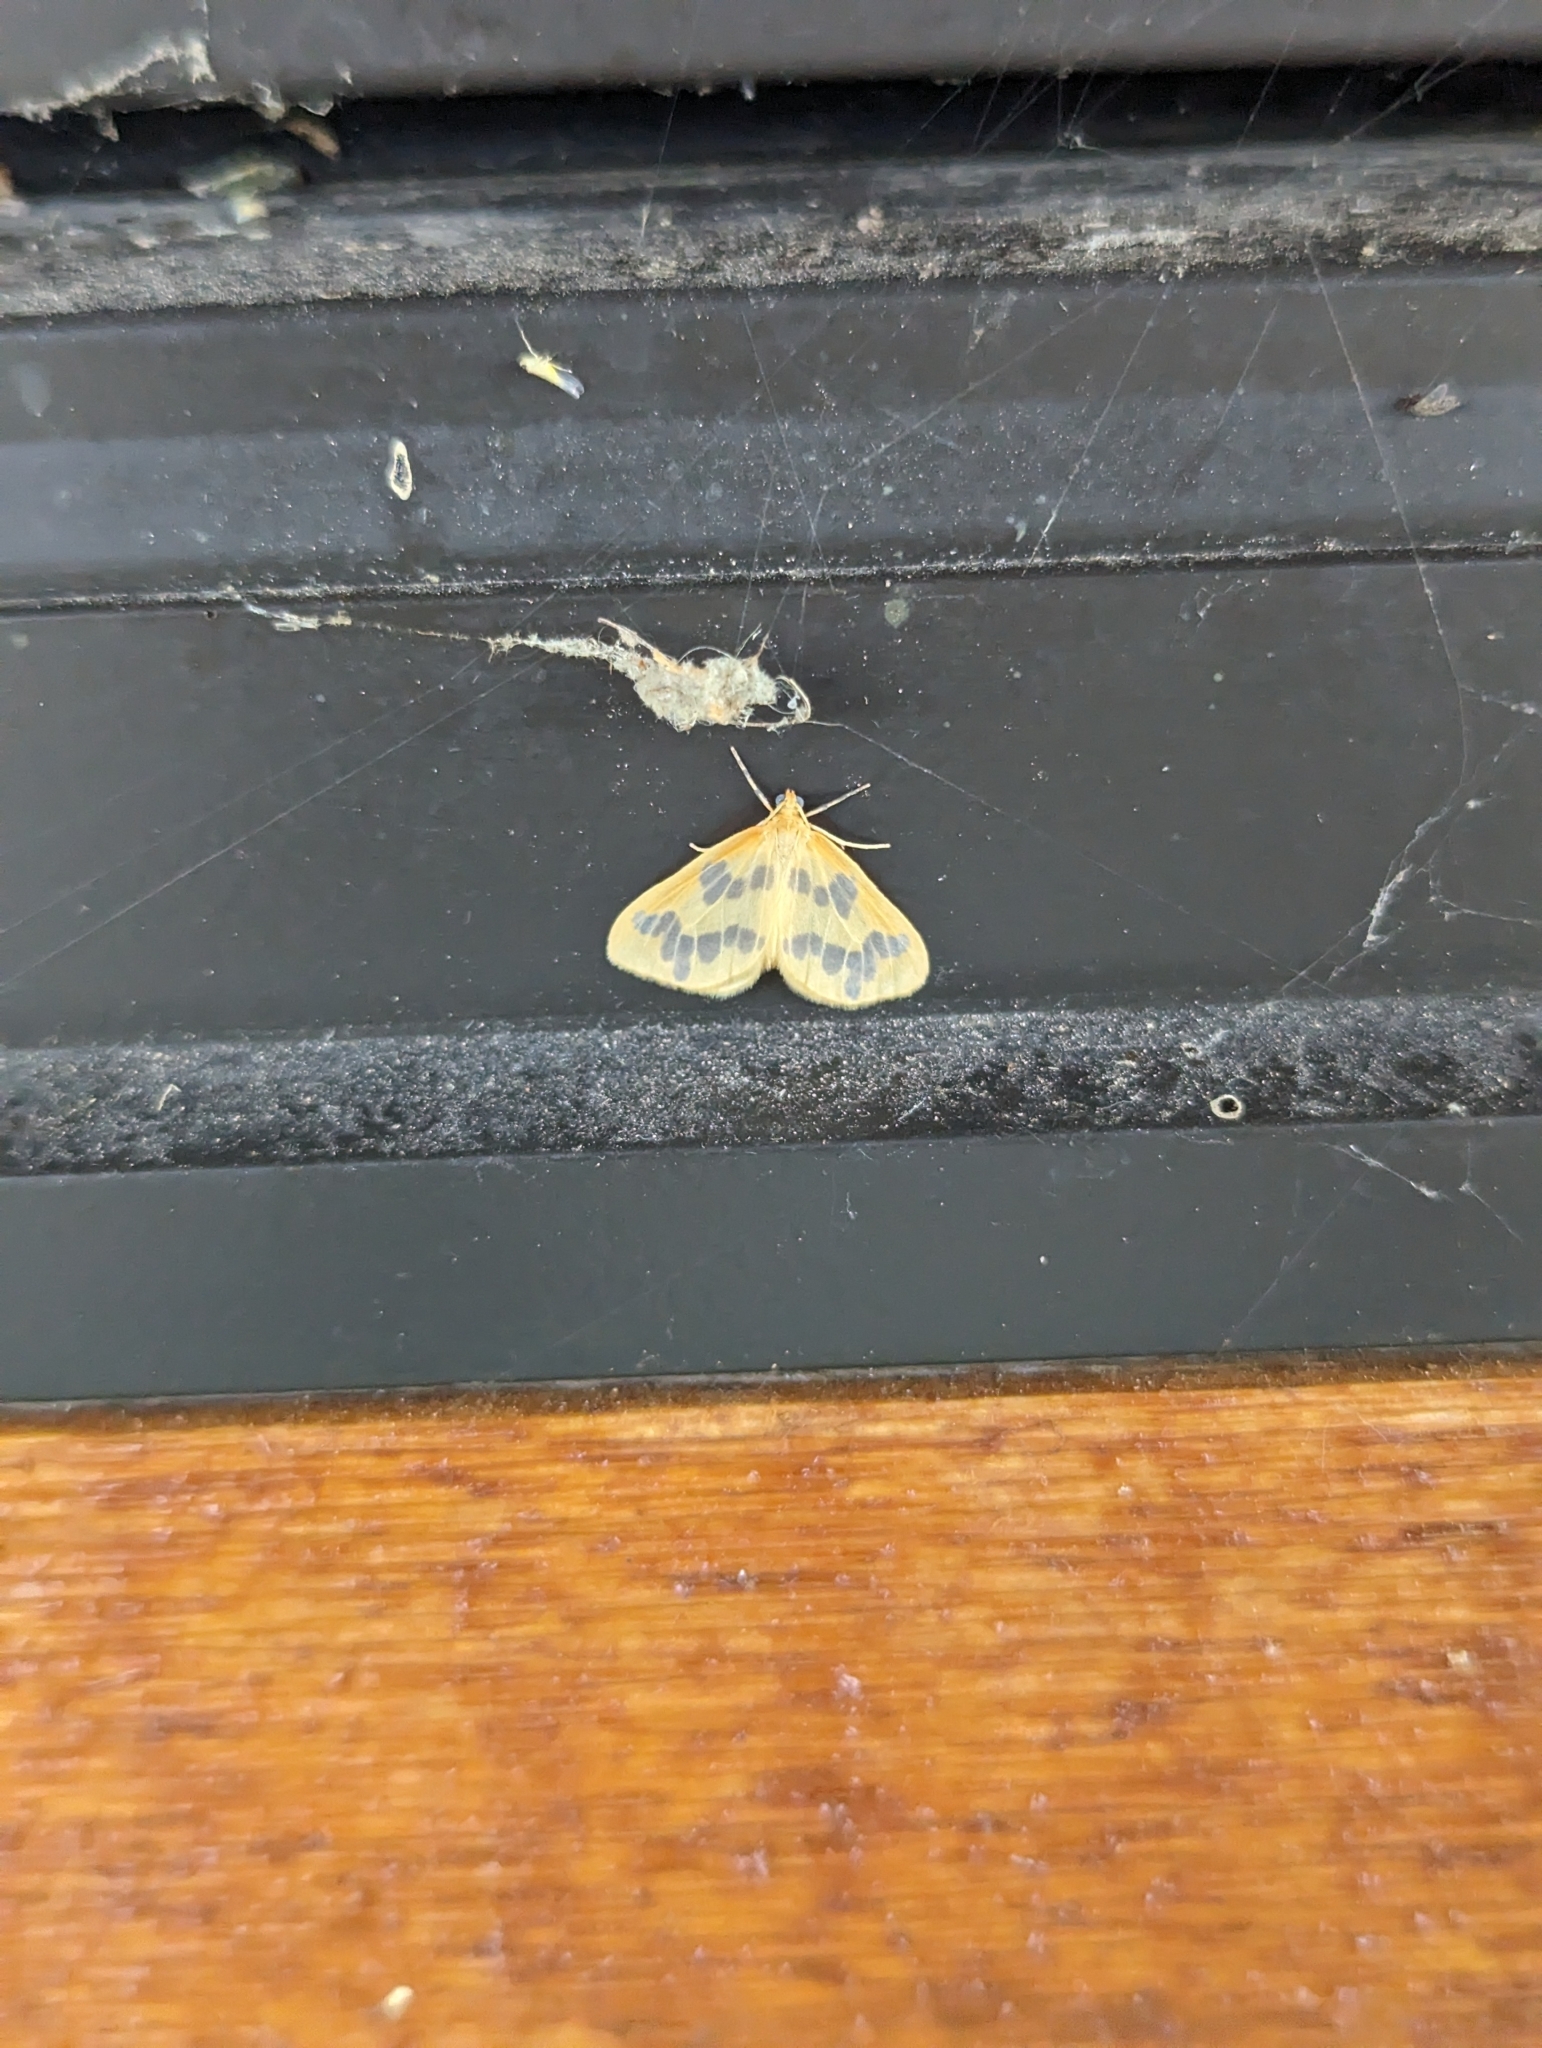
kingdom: Animalia
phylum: Arthropoda
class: Insecta
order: Lepidoptera
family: Geometridae
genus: Eubaphe
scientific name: Eubaphe mendica
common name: Beggar
